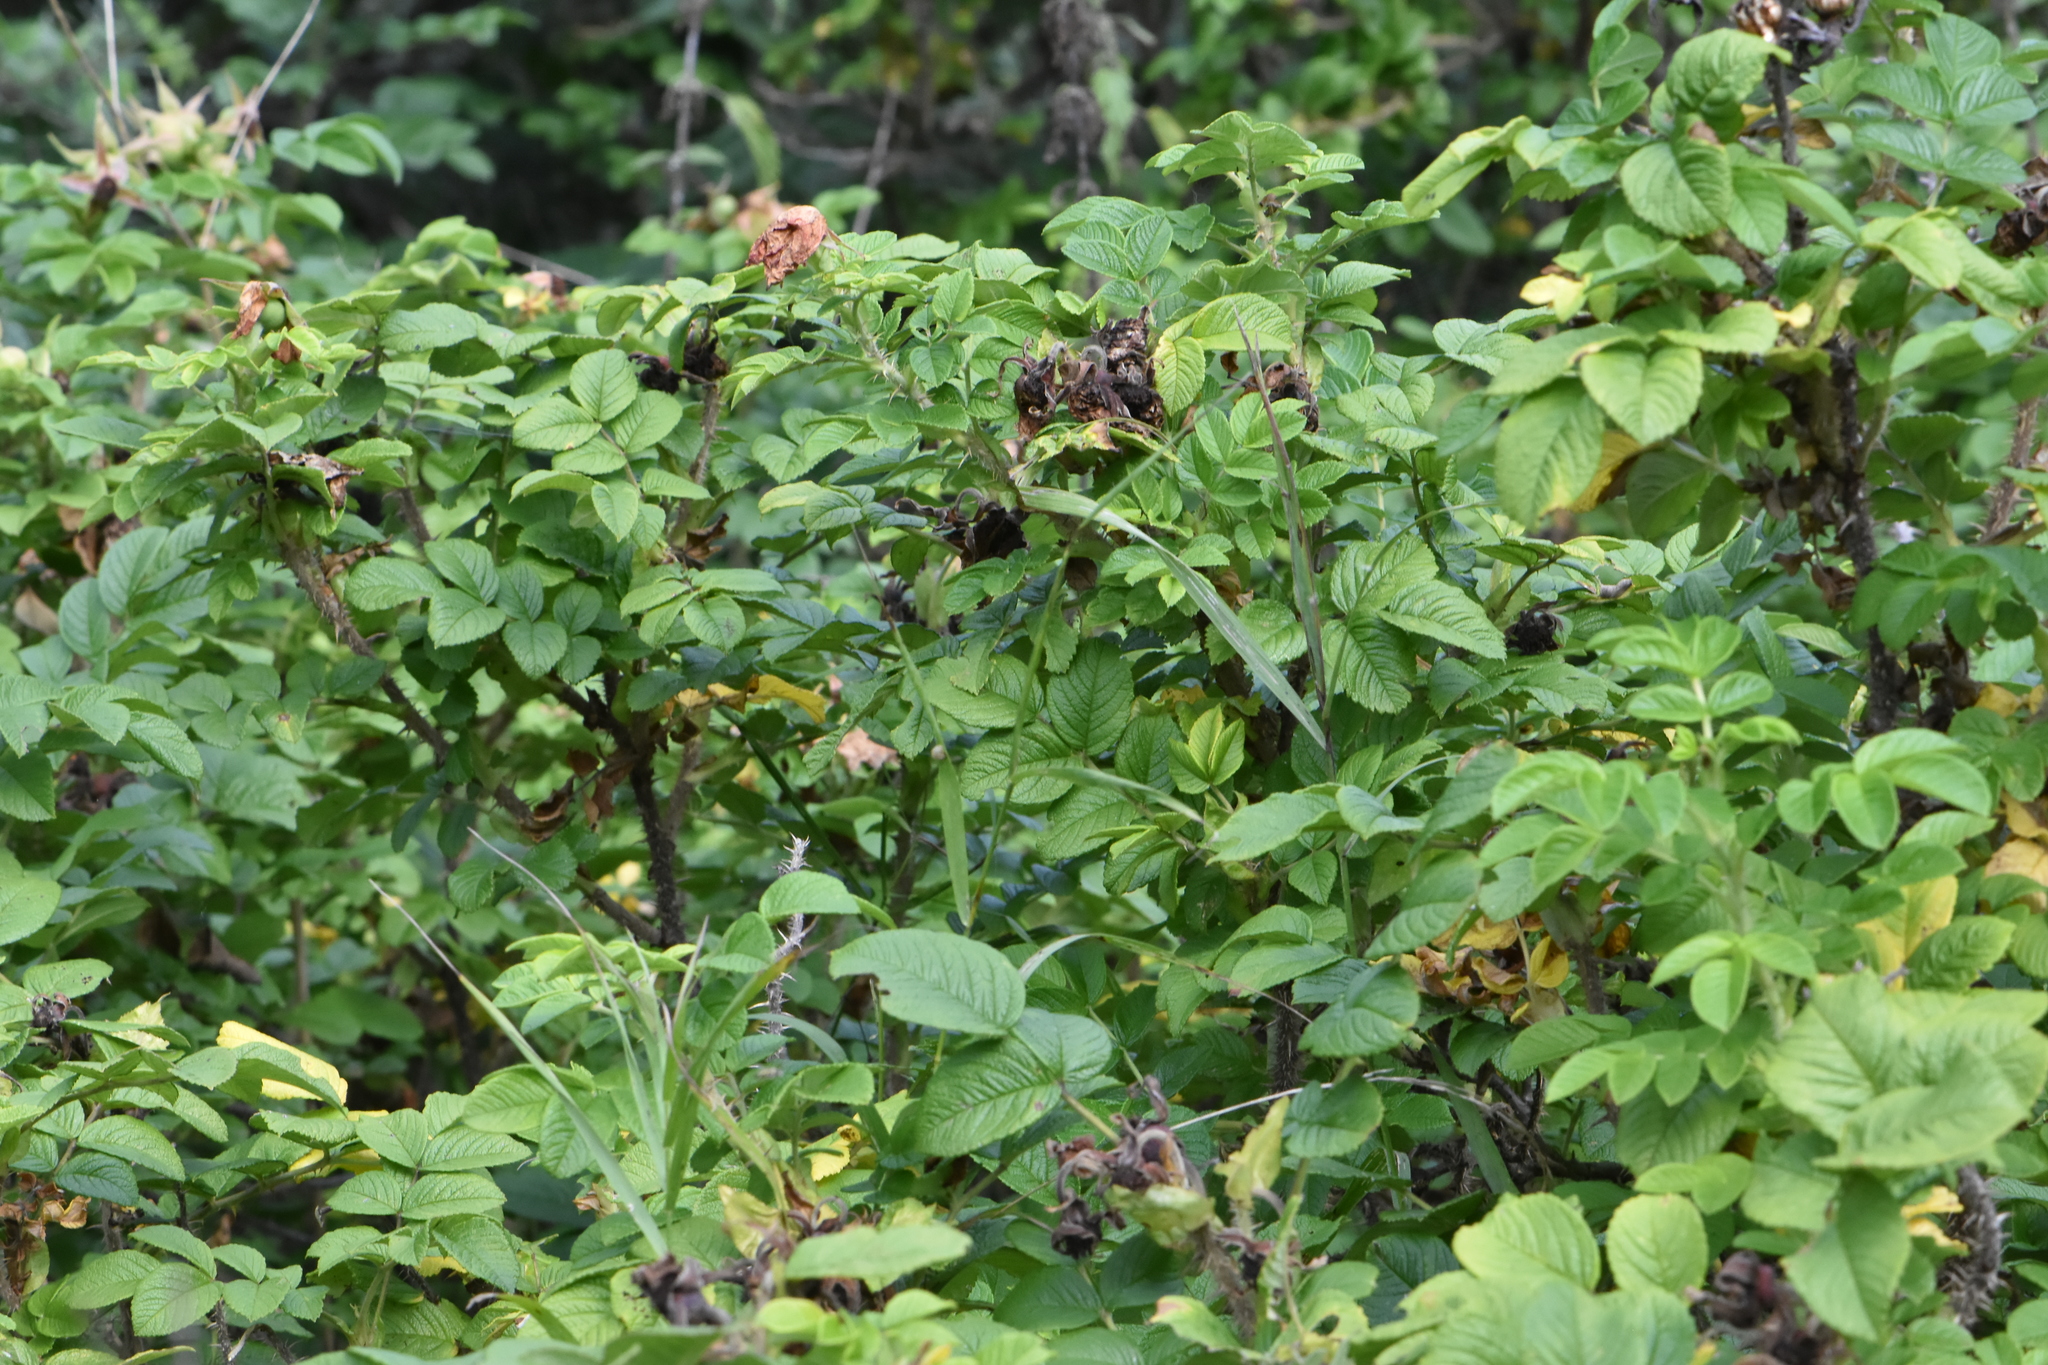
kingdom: Plantae
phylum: Tracheophyta
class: Magnoliopsida
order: Rosales
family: Rosaceae
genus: Rosa
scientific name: Rosa rugosa
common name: Japanese rose
